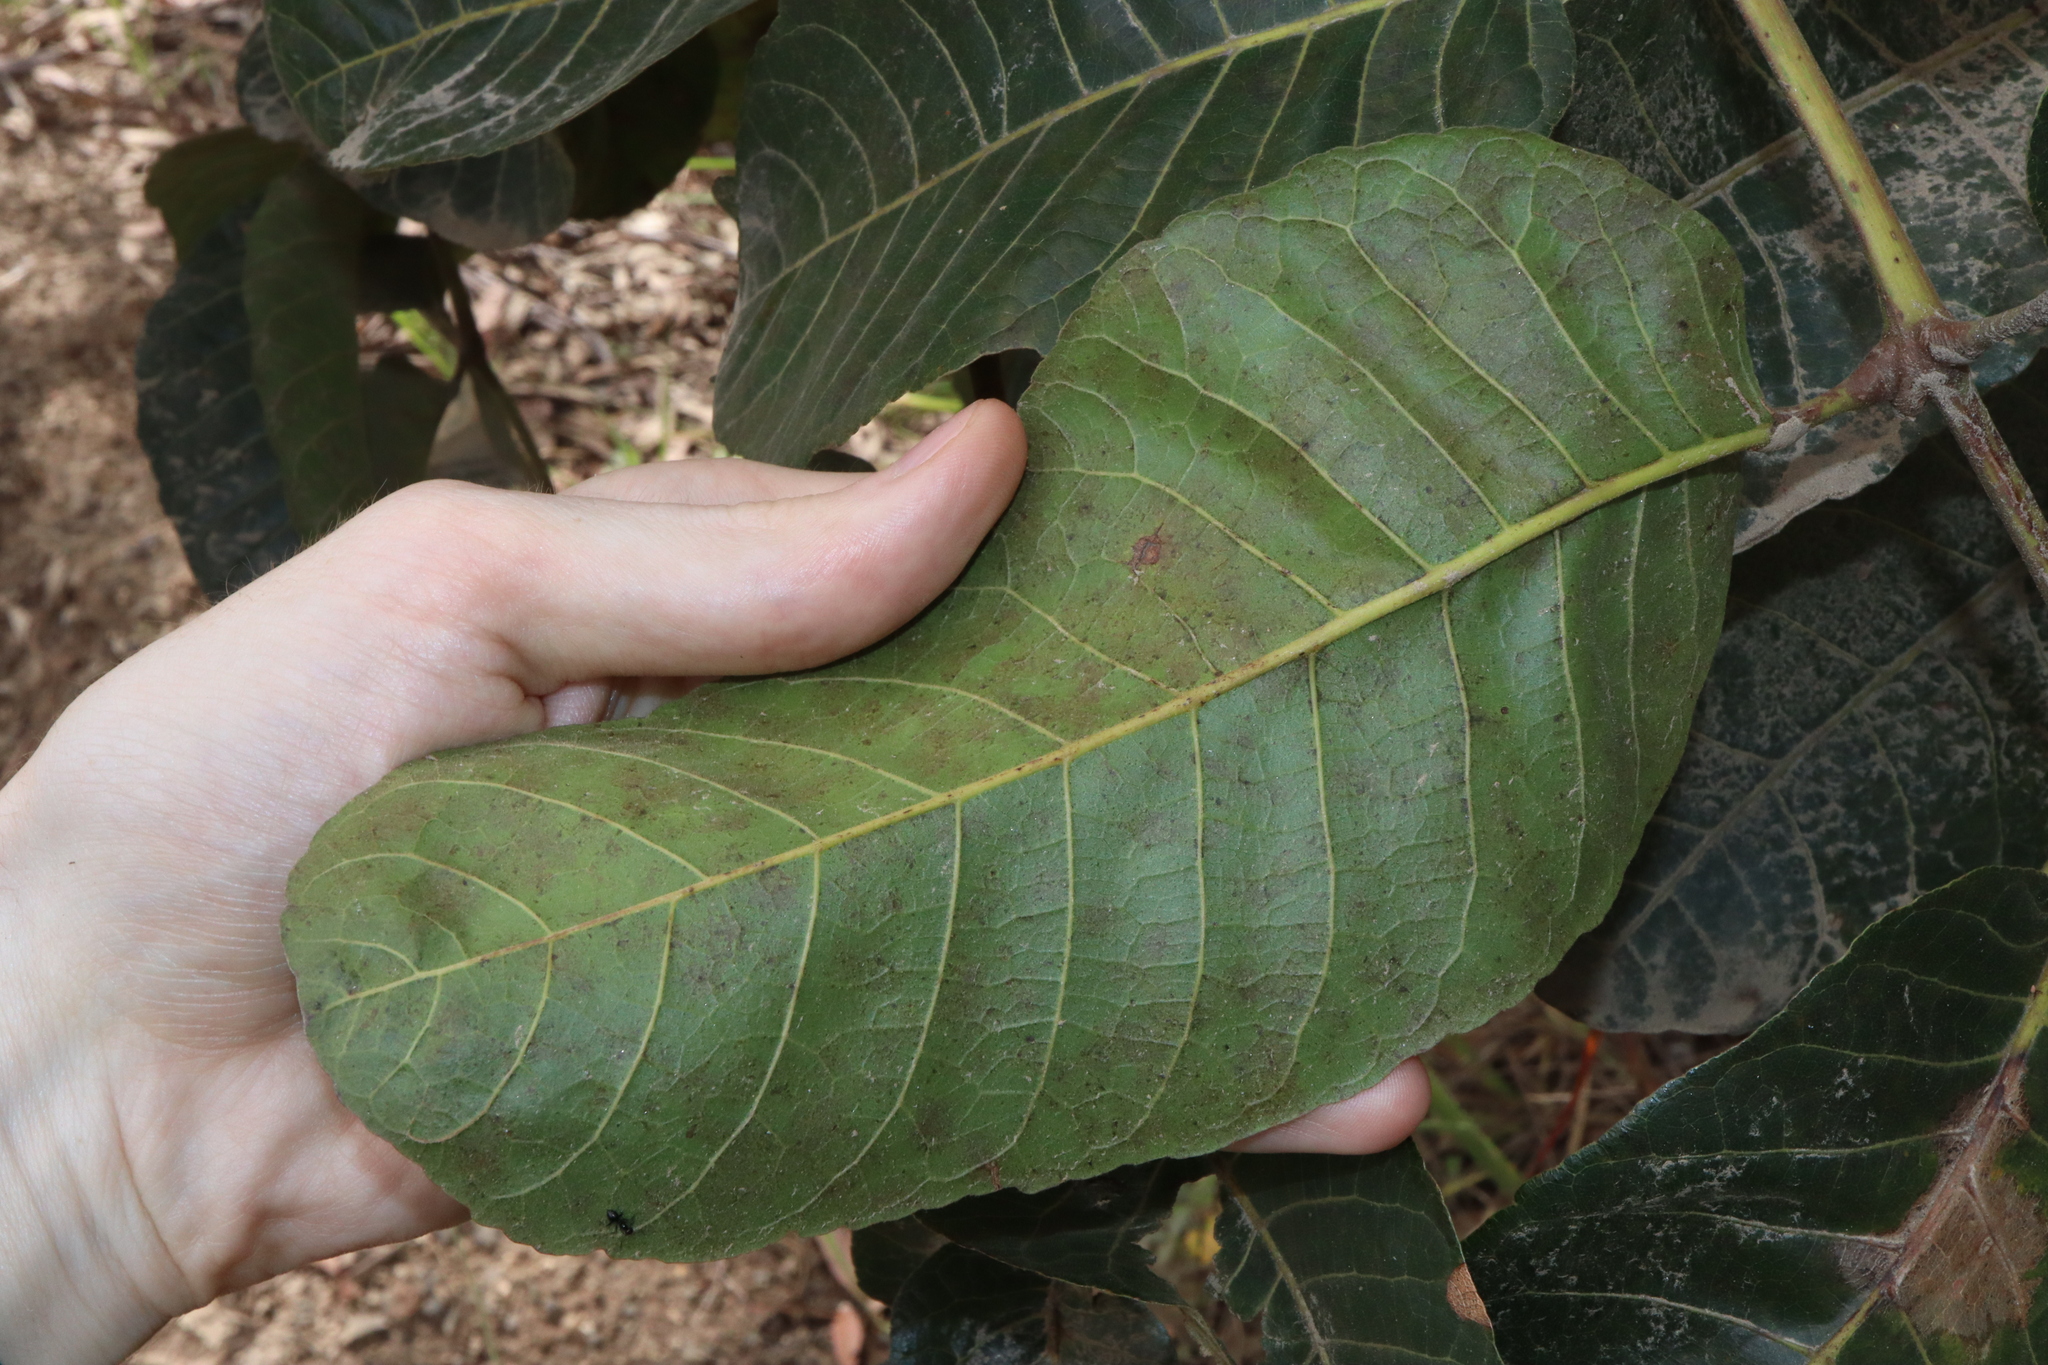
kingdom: Plantae
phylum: Tracheophyta
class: Magnoliopsida
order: Sapindales
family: Burseraceae
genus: Canarium
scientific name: Canarium australianum
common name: Island white-beech
